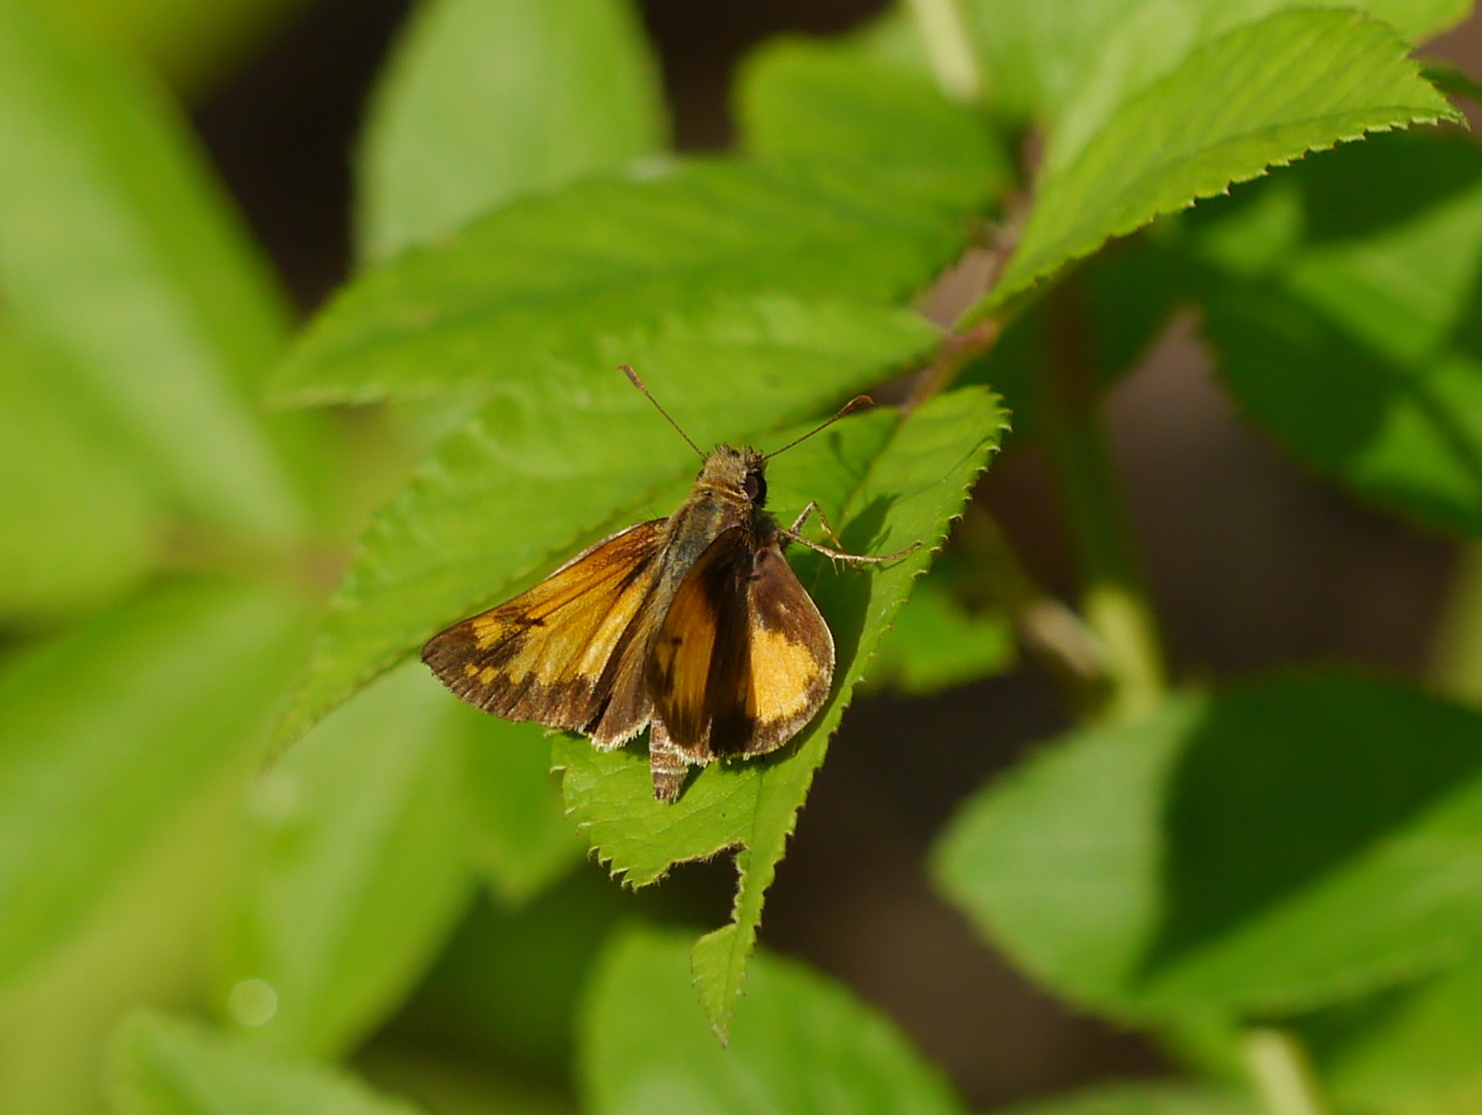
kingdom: Animalia
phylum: Arthropoda
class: Insecta
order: Lepidoptera
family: Hesperiidae
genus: Lon
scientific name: Lon zabulon
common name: Zabulon skipper
